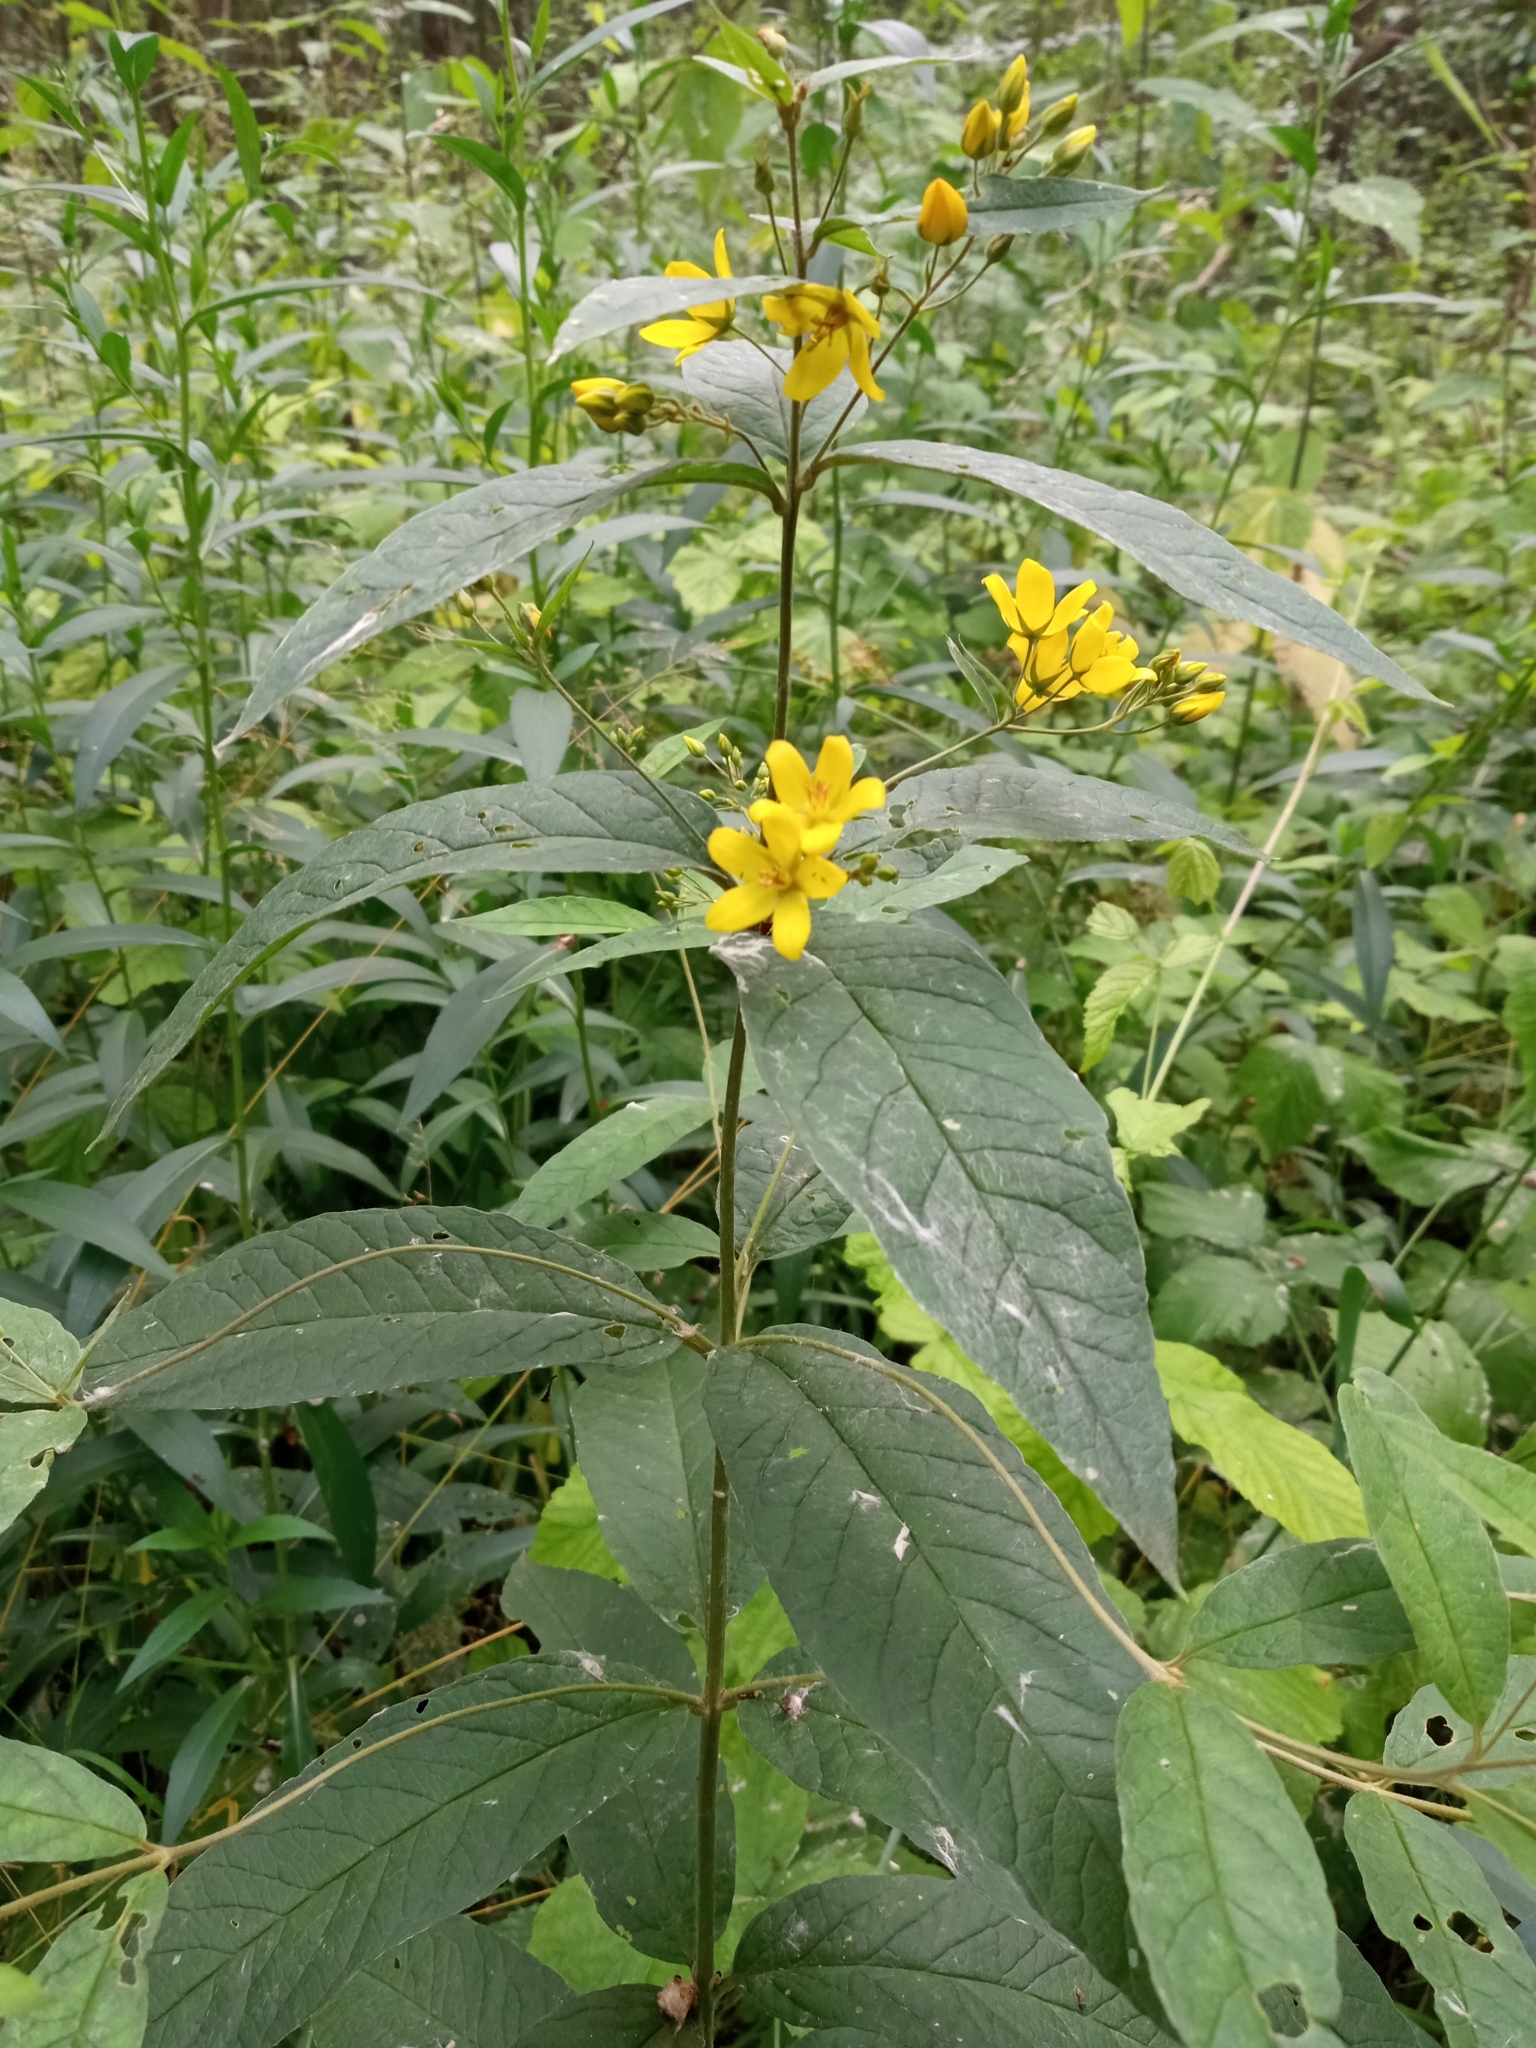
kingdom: Plantae
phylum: Tracheophyta
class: Magnoliopsida
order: Ericales
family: Primulaceae
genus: Lysimachia
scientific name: Lysimachia vulgaris
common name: Yellow loosestrife
